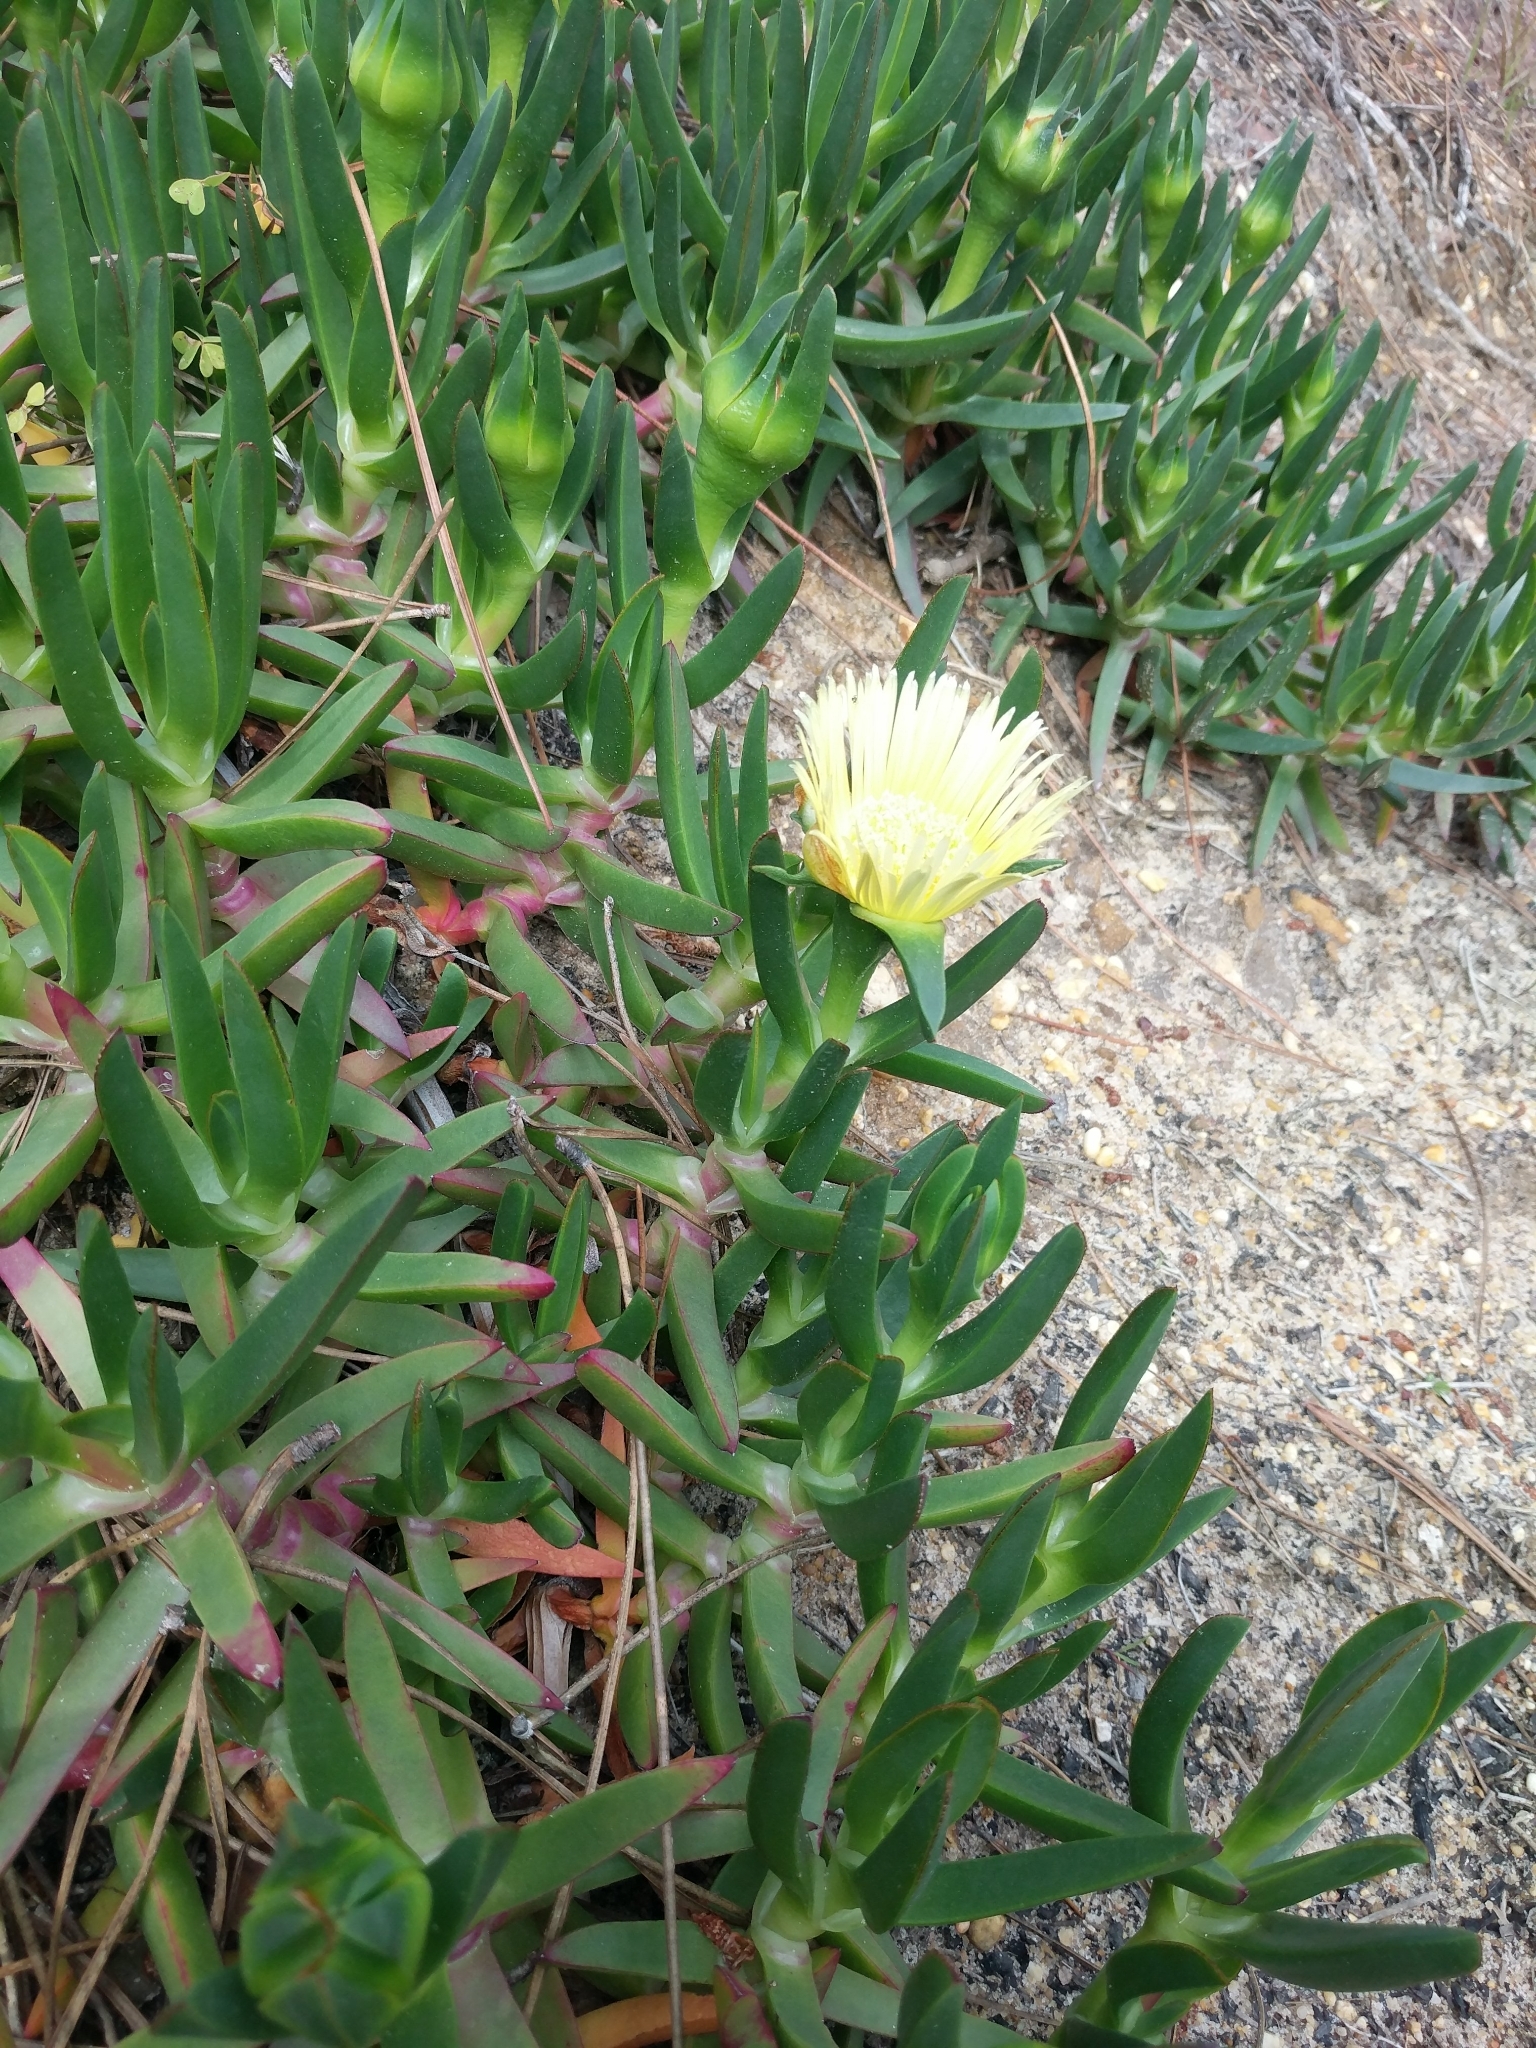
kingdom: Plantae
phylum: Tracheophyta
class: Magnoliopsida
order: Caryophyllales
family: Aizoaceae
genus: Carpobrotus
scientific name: Carpobrotus edulis
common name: Hottentot-fig
